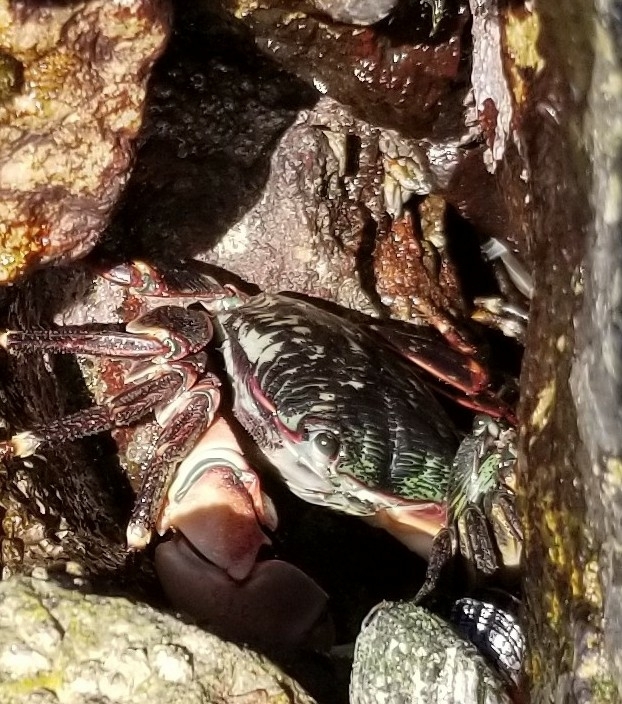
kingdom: Animalia
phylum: Arthropoda
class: Malacostraca
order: Decapoda
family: Grapsidae
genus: Pachygrapsus
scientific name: Pachygrapsus crassipes
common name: Striped shore crab
